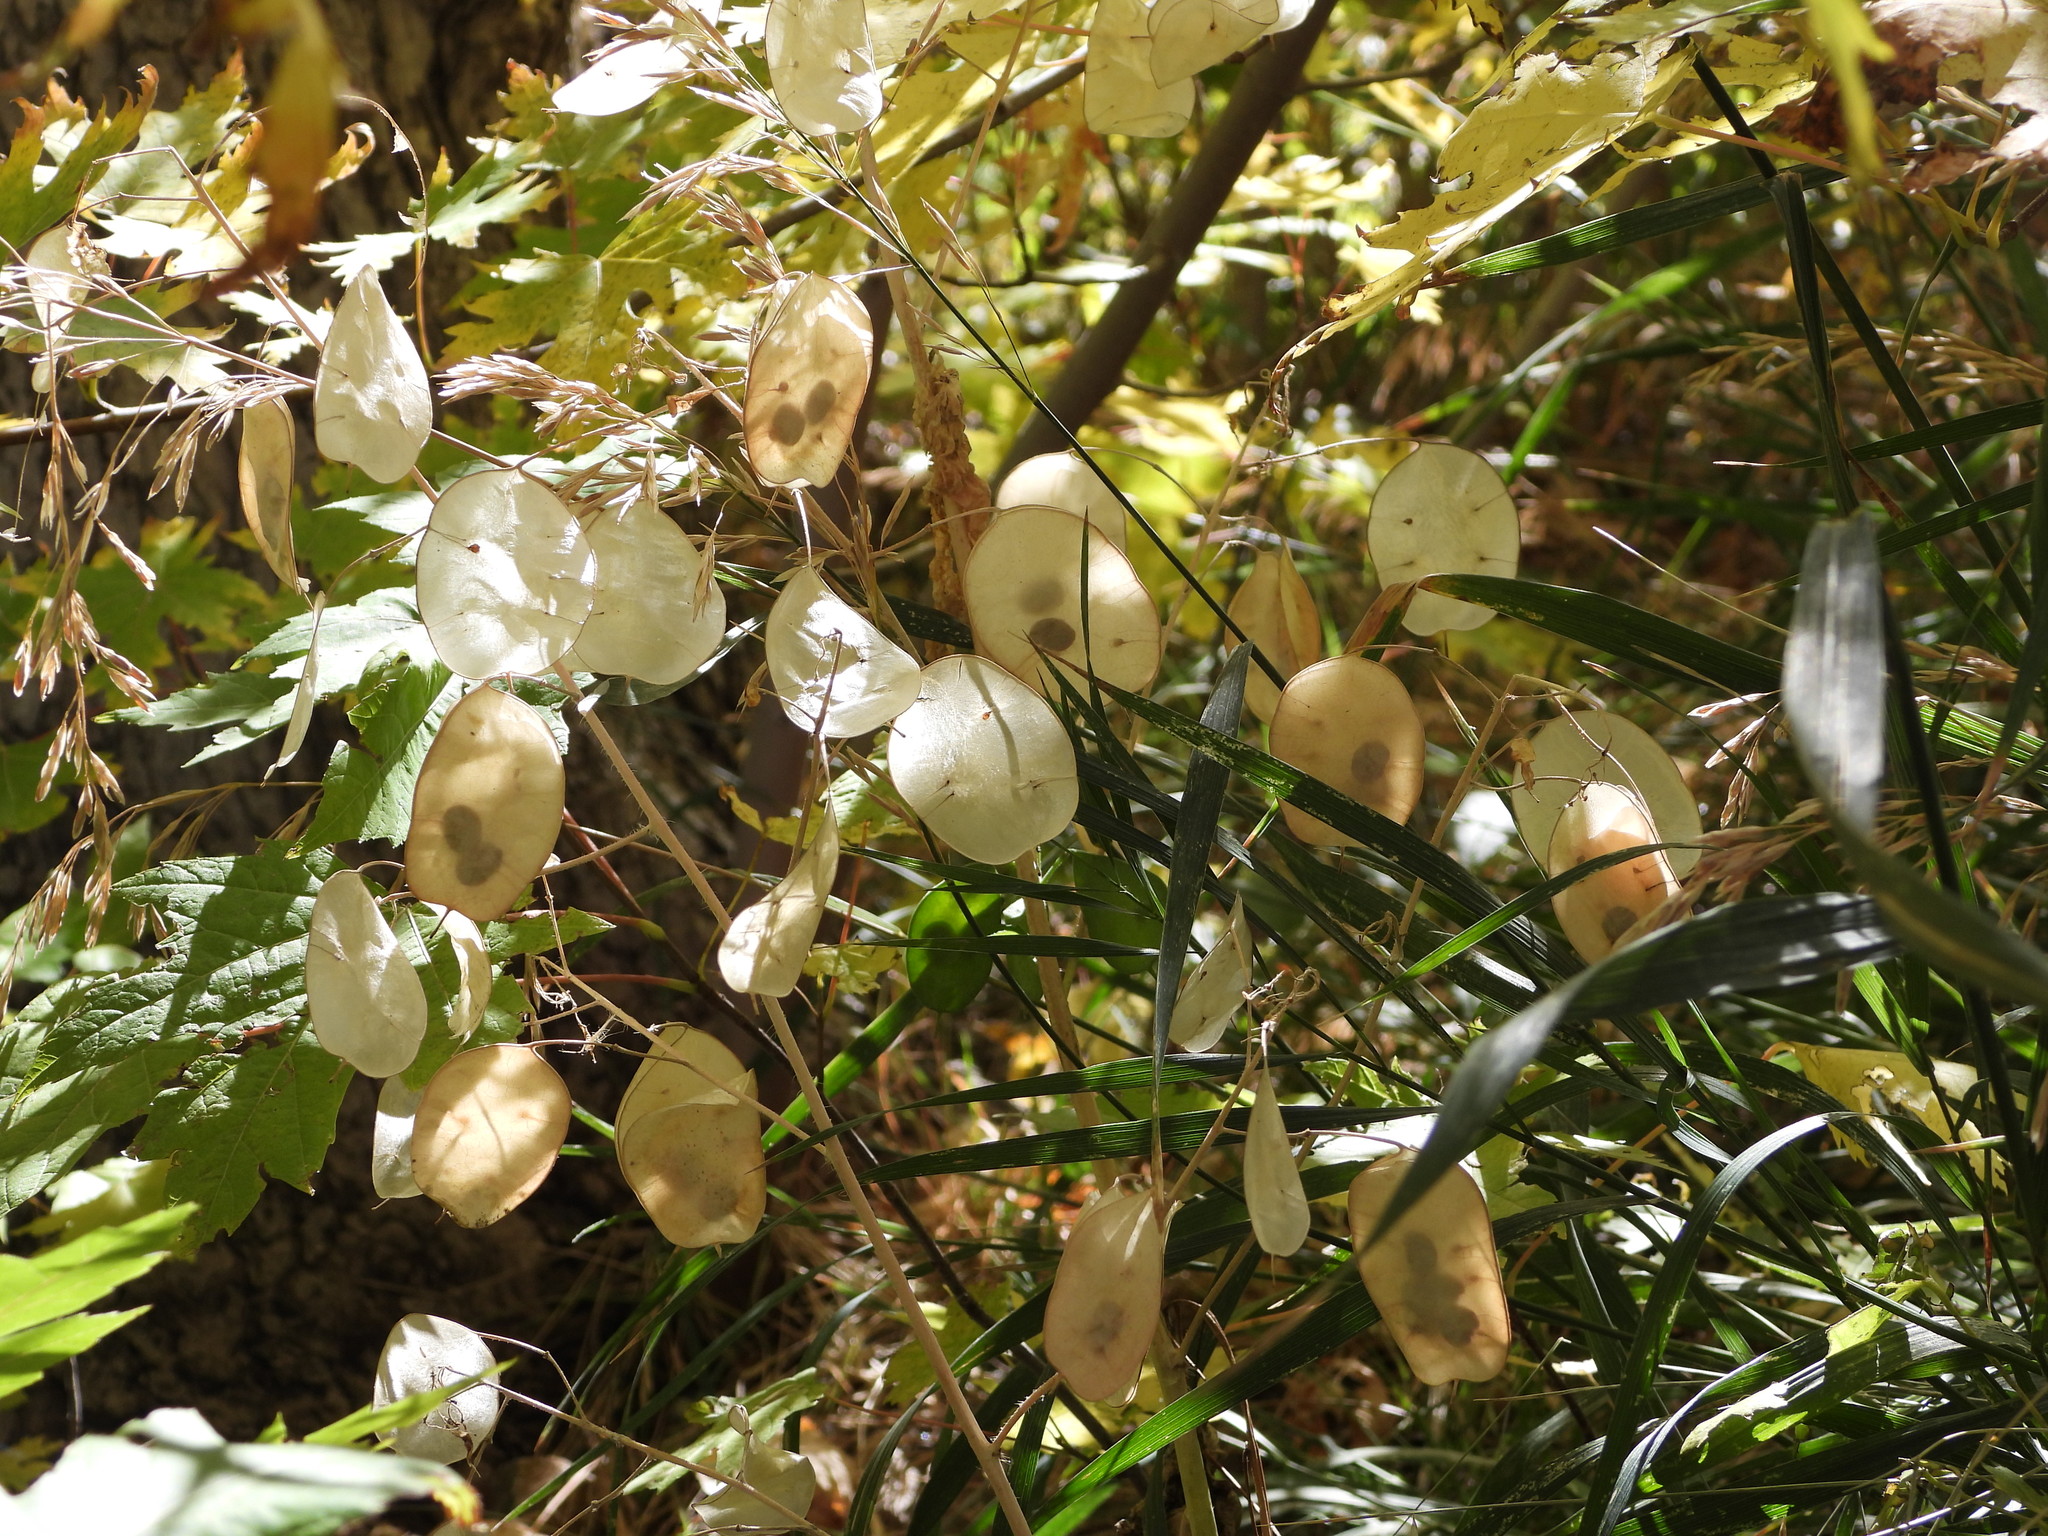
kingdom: Plantae
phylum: Tracheophyta
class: Magnoliopsida
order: Brassicales
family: Brassicaceae
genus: Lunaria
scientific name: Lunaria annua
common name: Honesty
